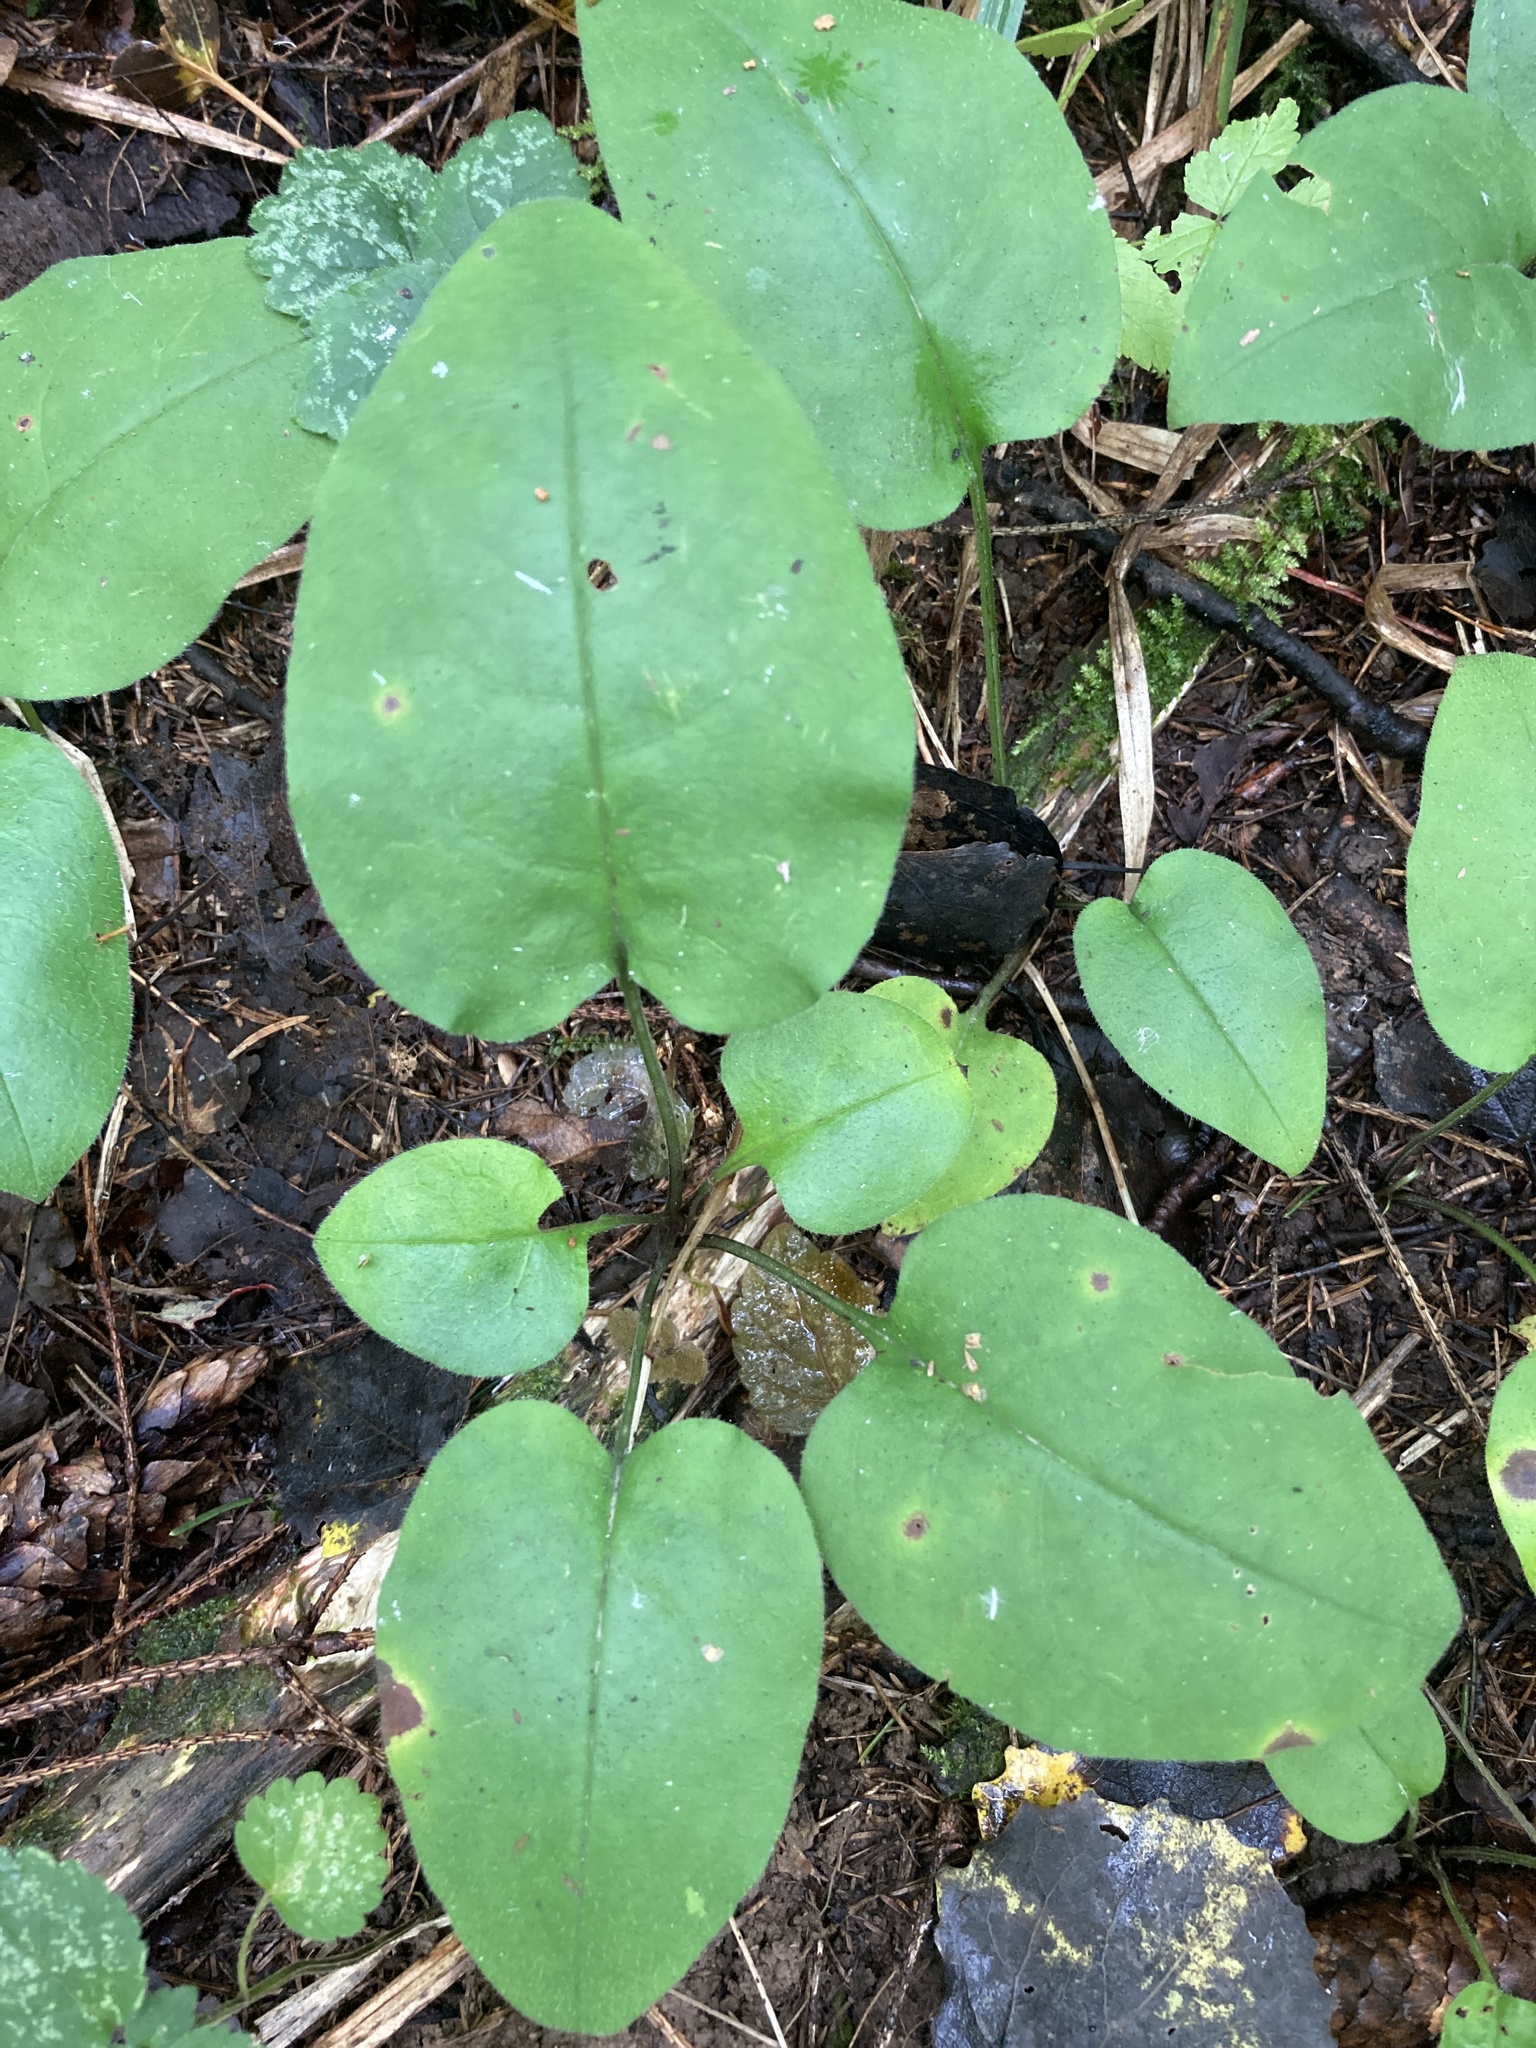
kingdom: Plantae
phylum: Tracheophyta
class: Magnoliopsida
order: Boraginales
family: Boraginaceae
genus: Pulmonaria
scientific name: Pulmonaria obscura
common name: Suffolk lungwort
